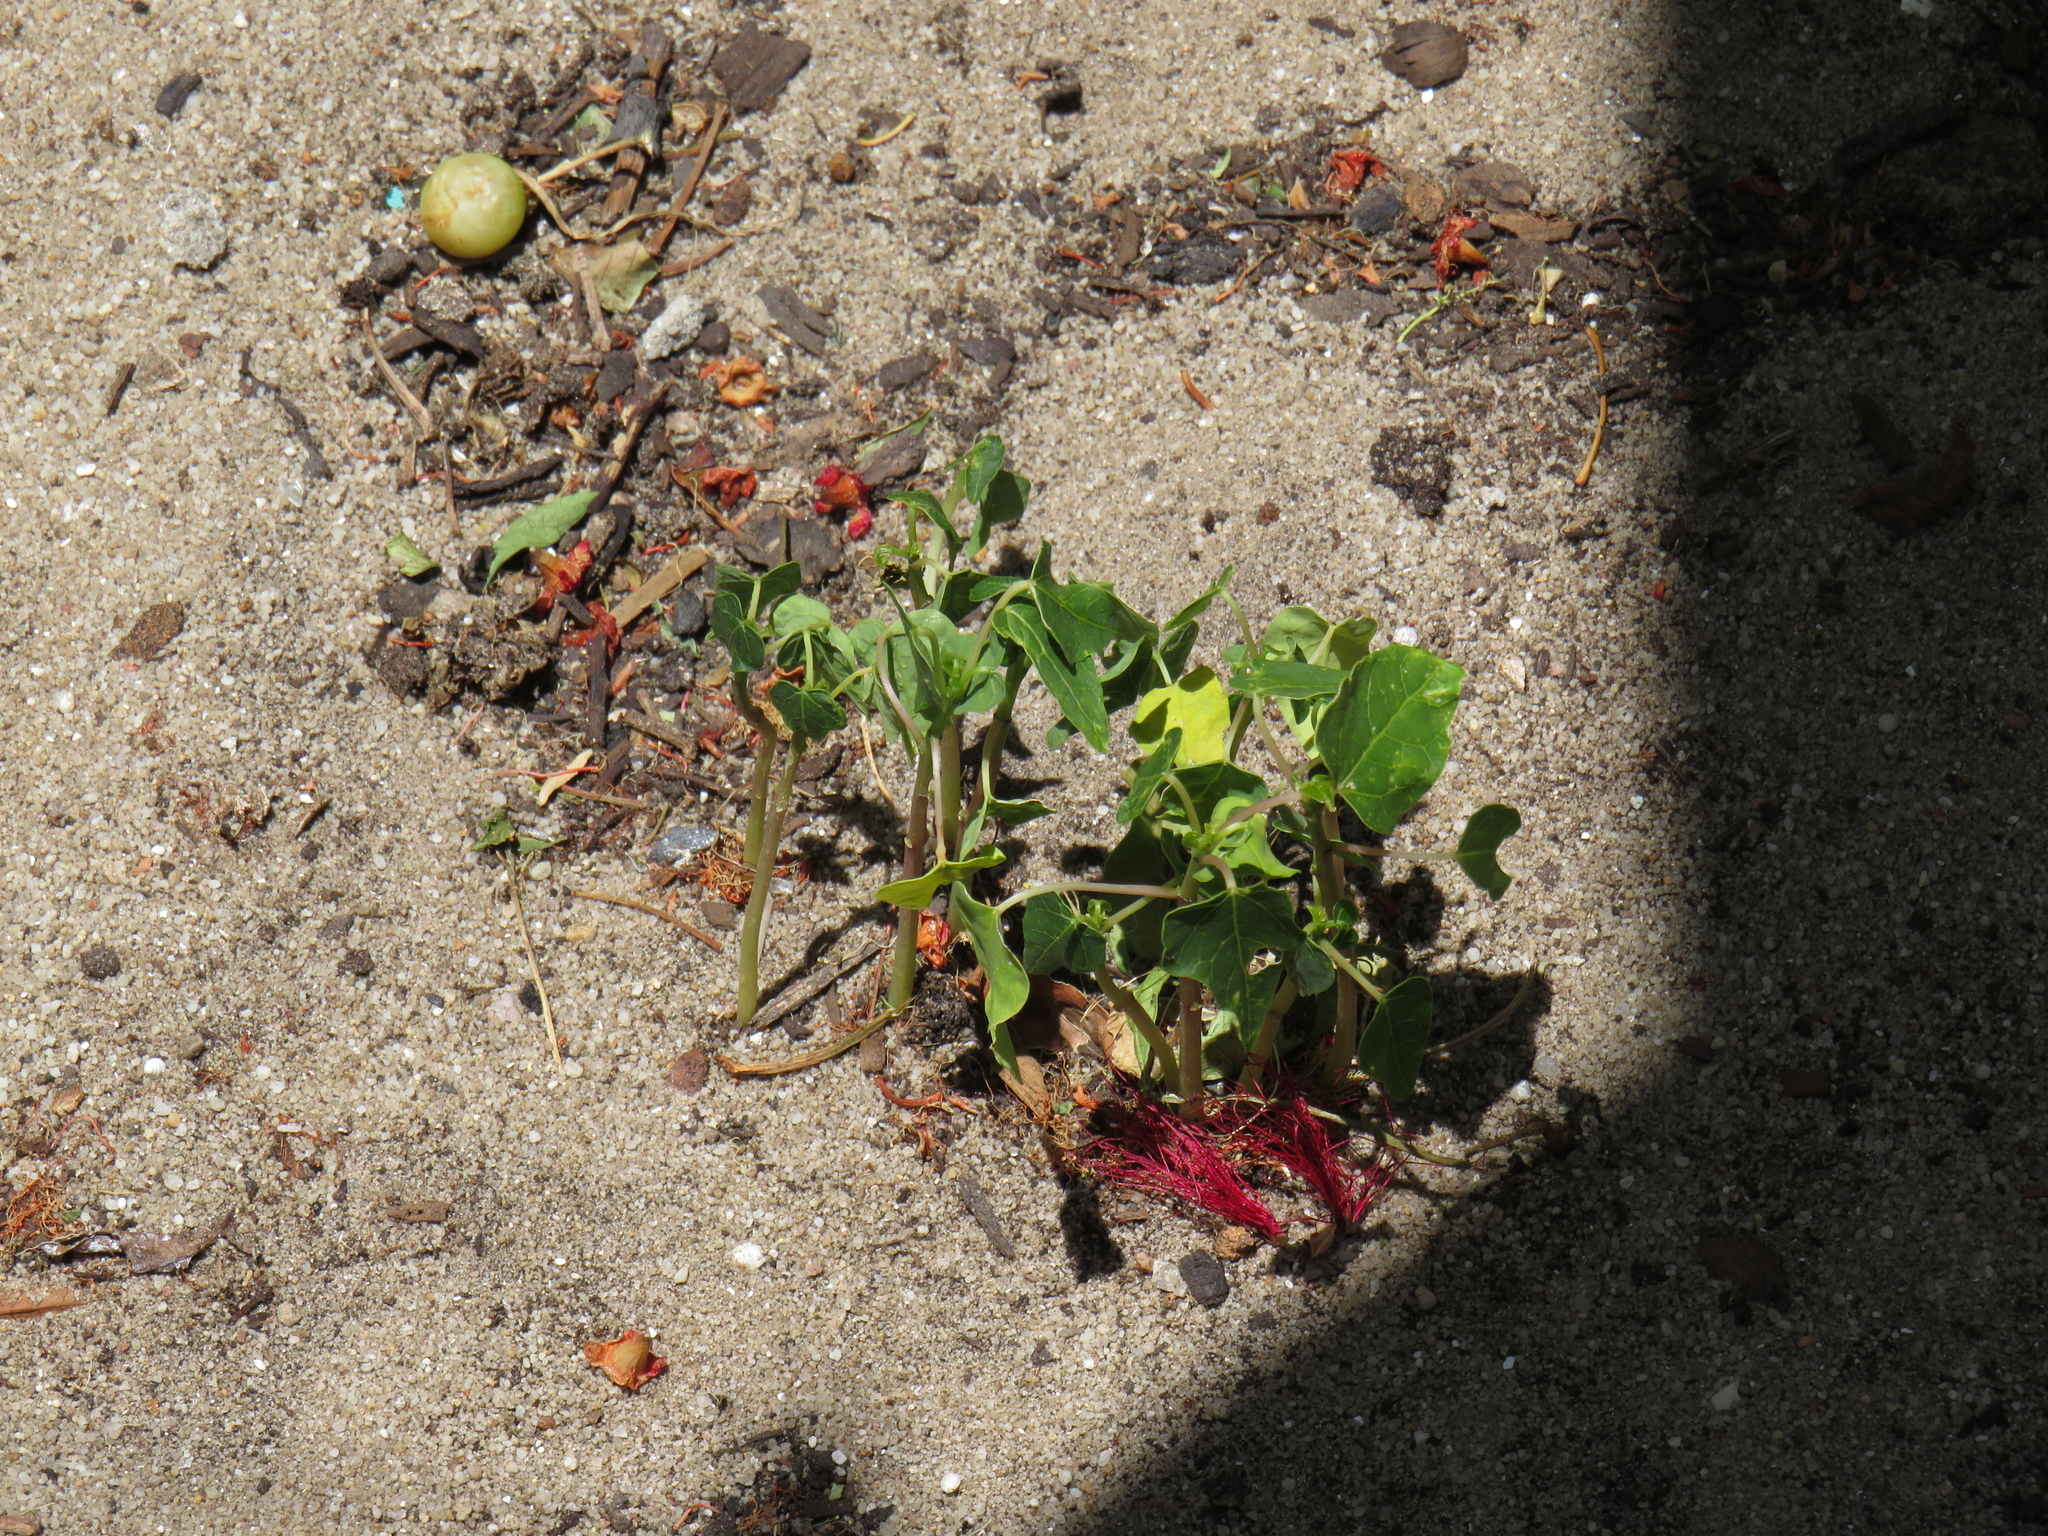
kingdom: Plantae
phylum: Tracheophyta
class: Magnoliopsida
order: Brassicales
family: Caricaceae
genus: Carica
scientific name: Carica papaya
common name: Papaya
